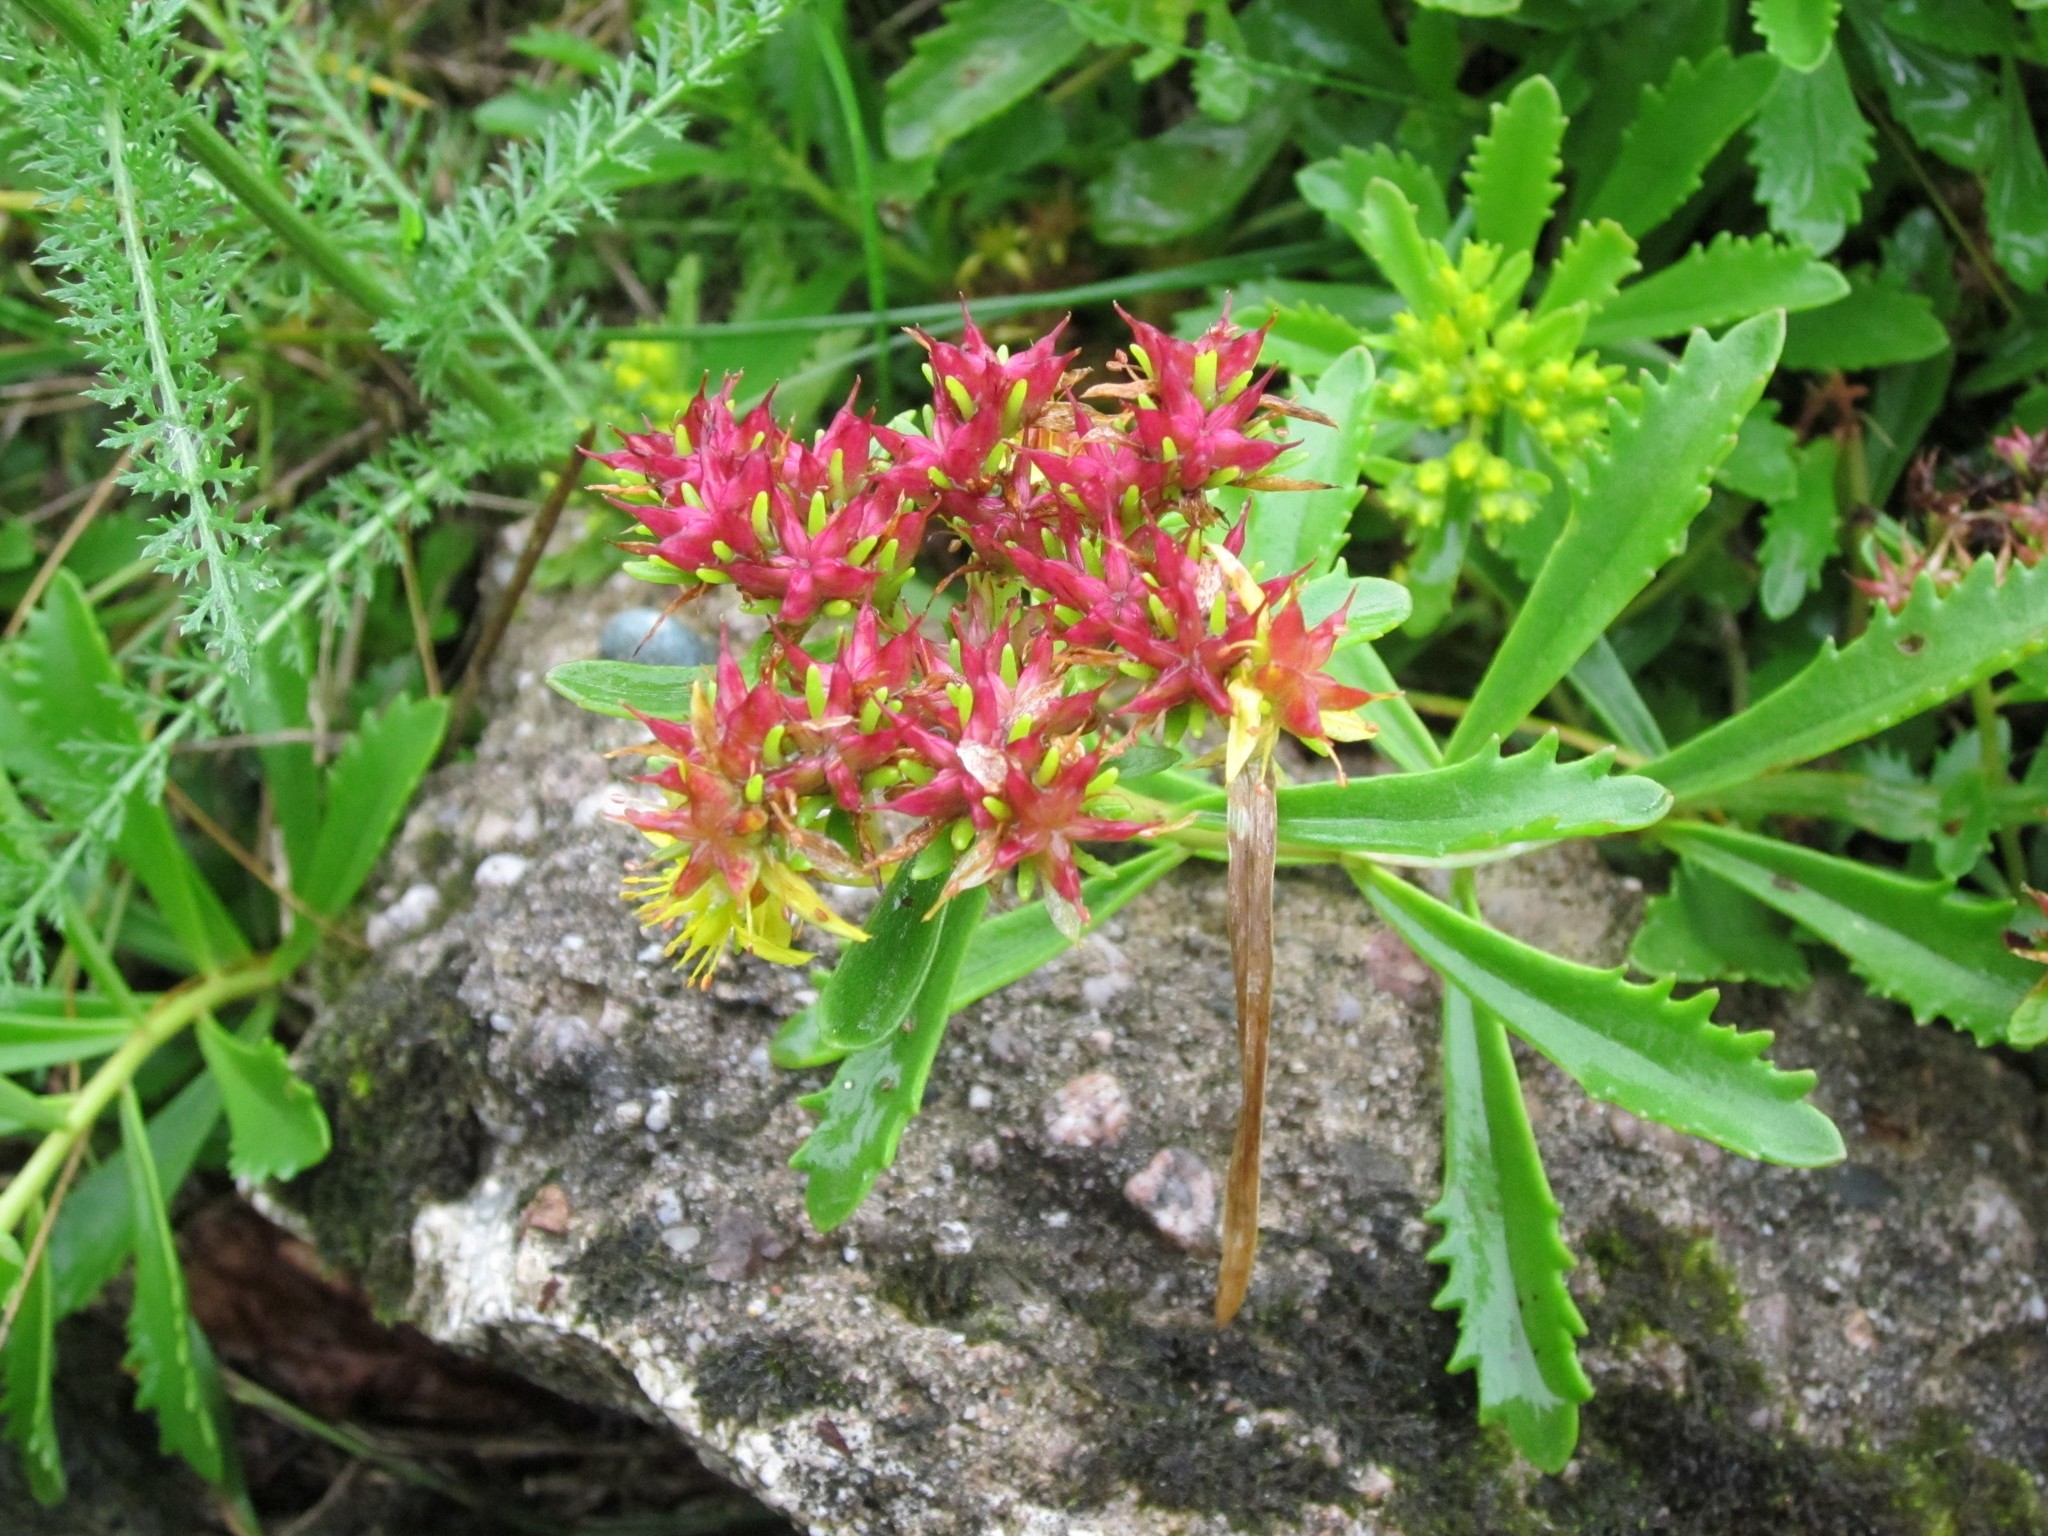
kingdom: Plantae
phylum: Tracheophyta
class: Magnoliopsida
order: Saxifragales
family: Crassulaceae
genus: Phedimus
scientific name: Phedimus middendorfianus
